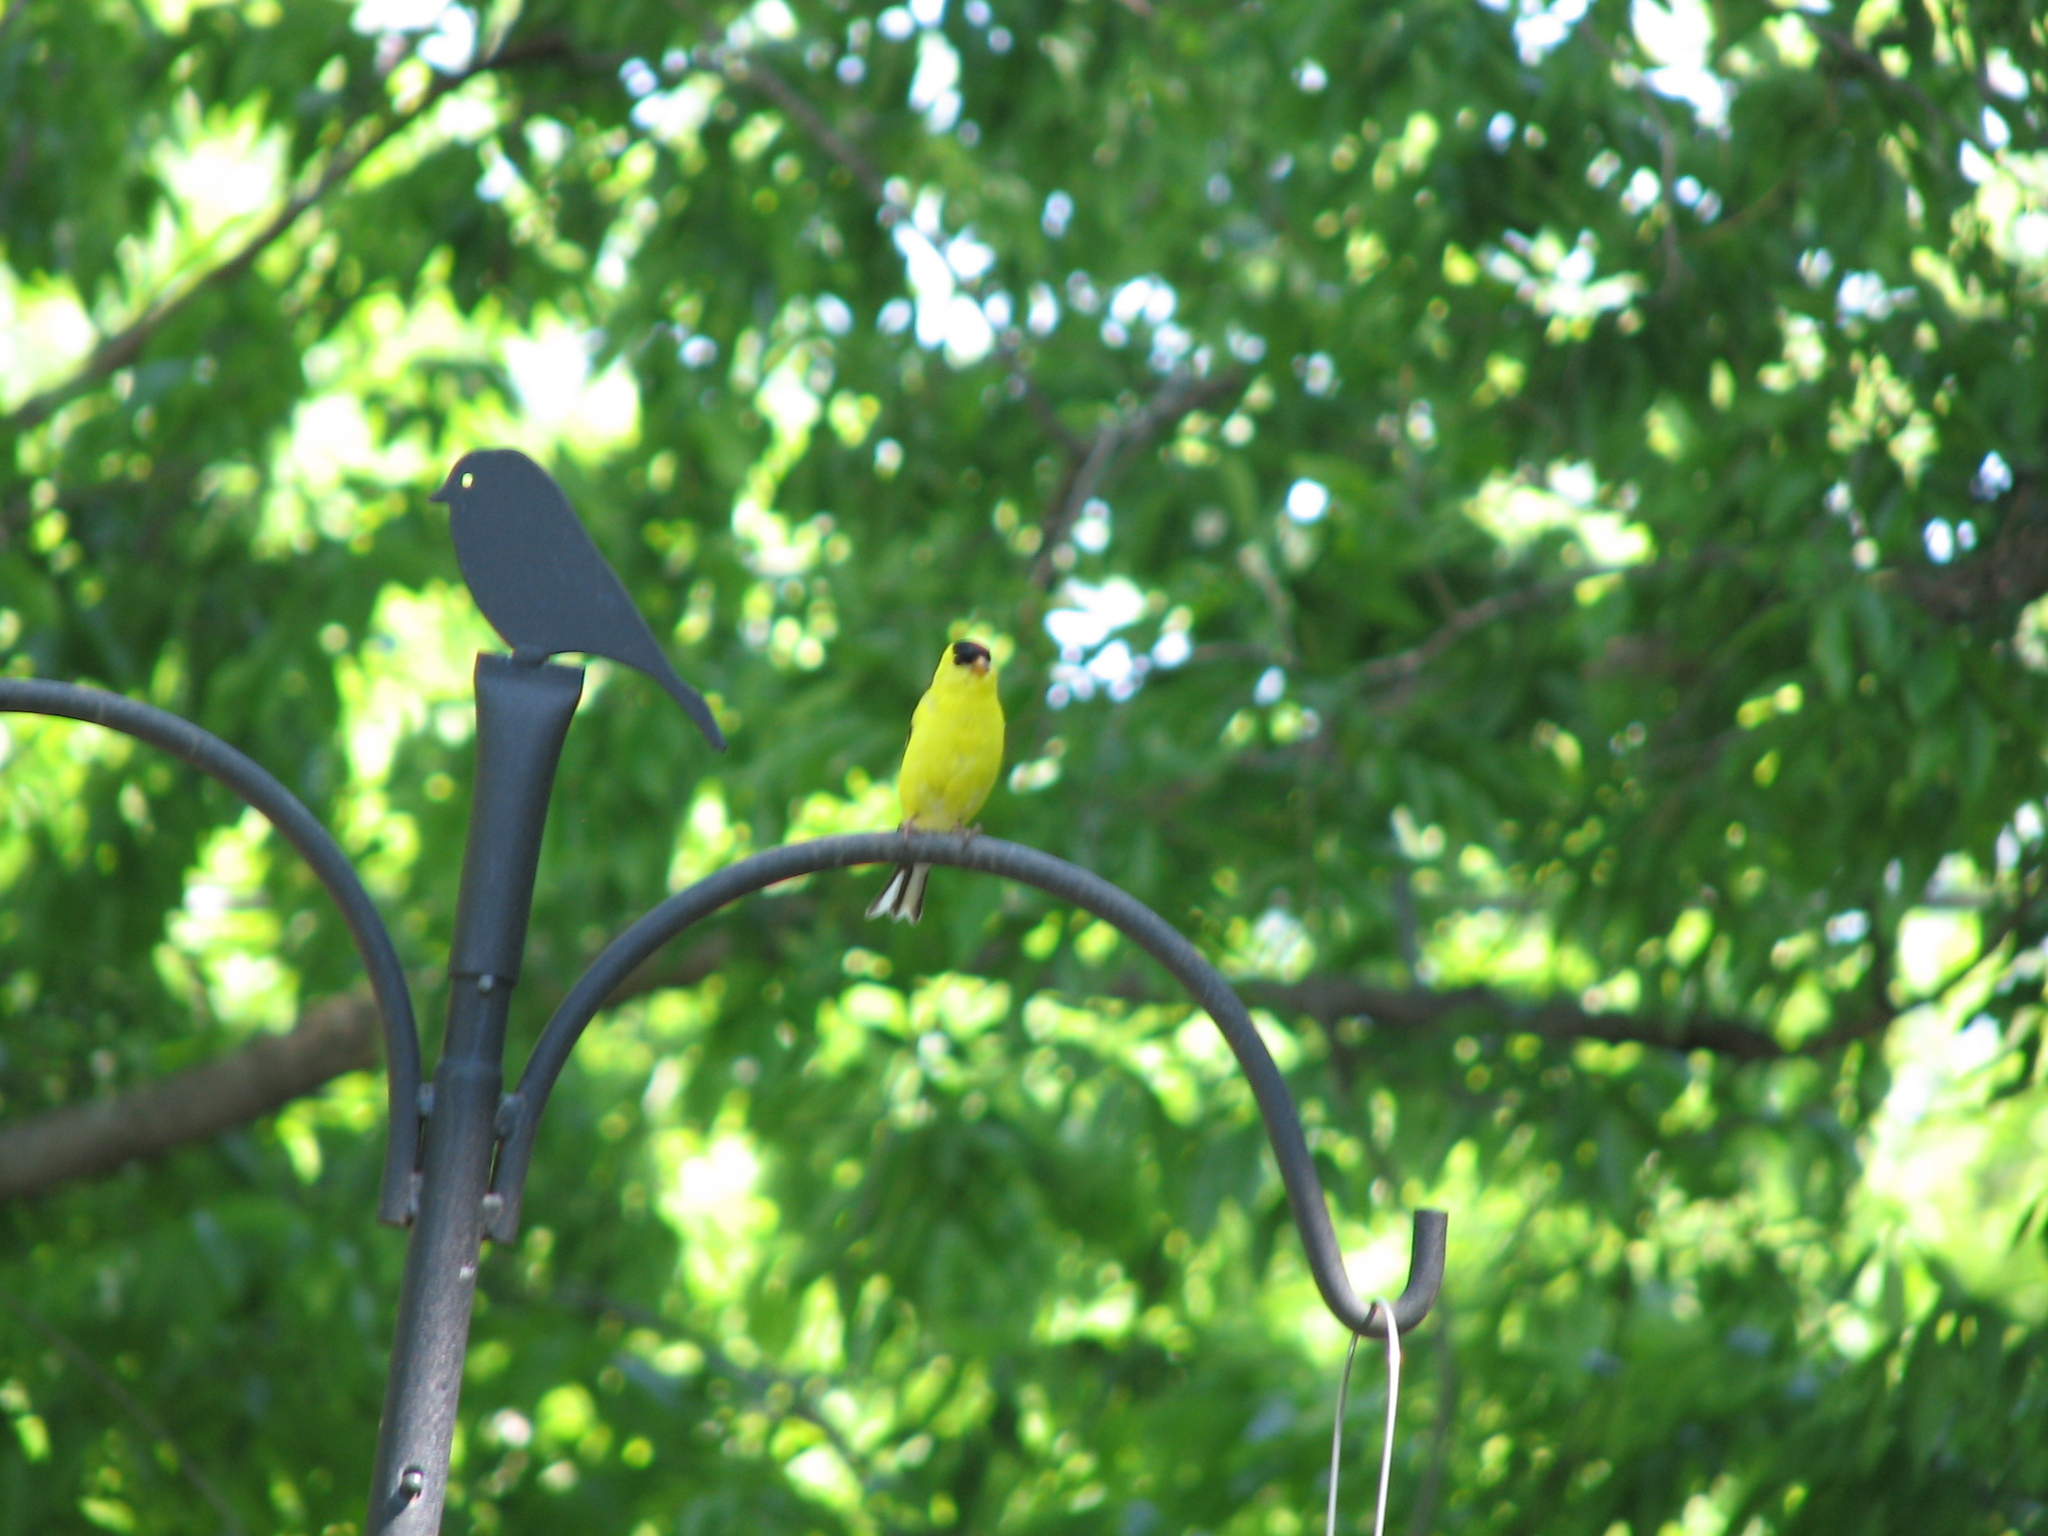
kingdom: Animalia
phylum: Chordata
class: Aves
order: Passeriformes
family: Fringillidae
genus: Spinus
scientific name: Spinus tristis
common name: American goldfinch
